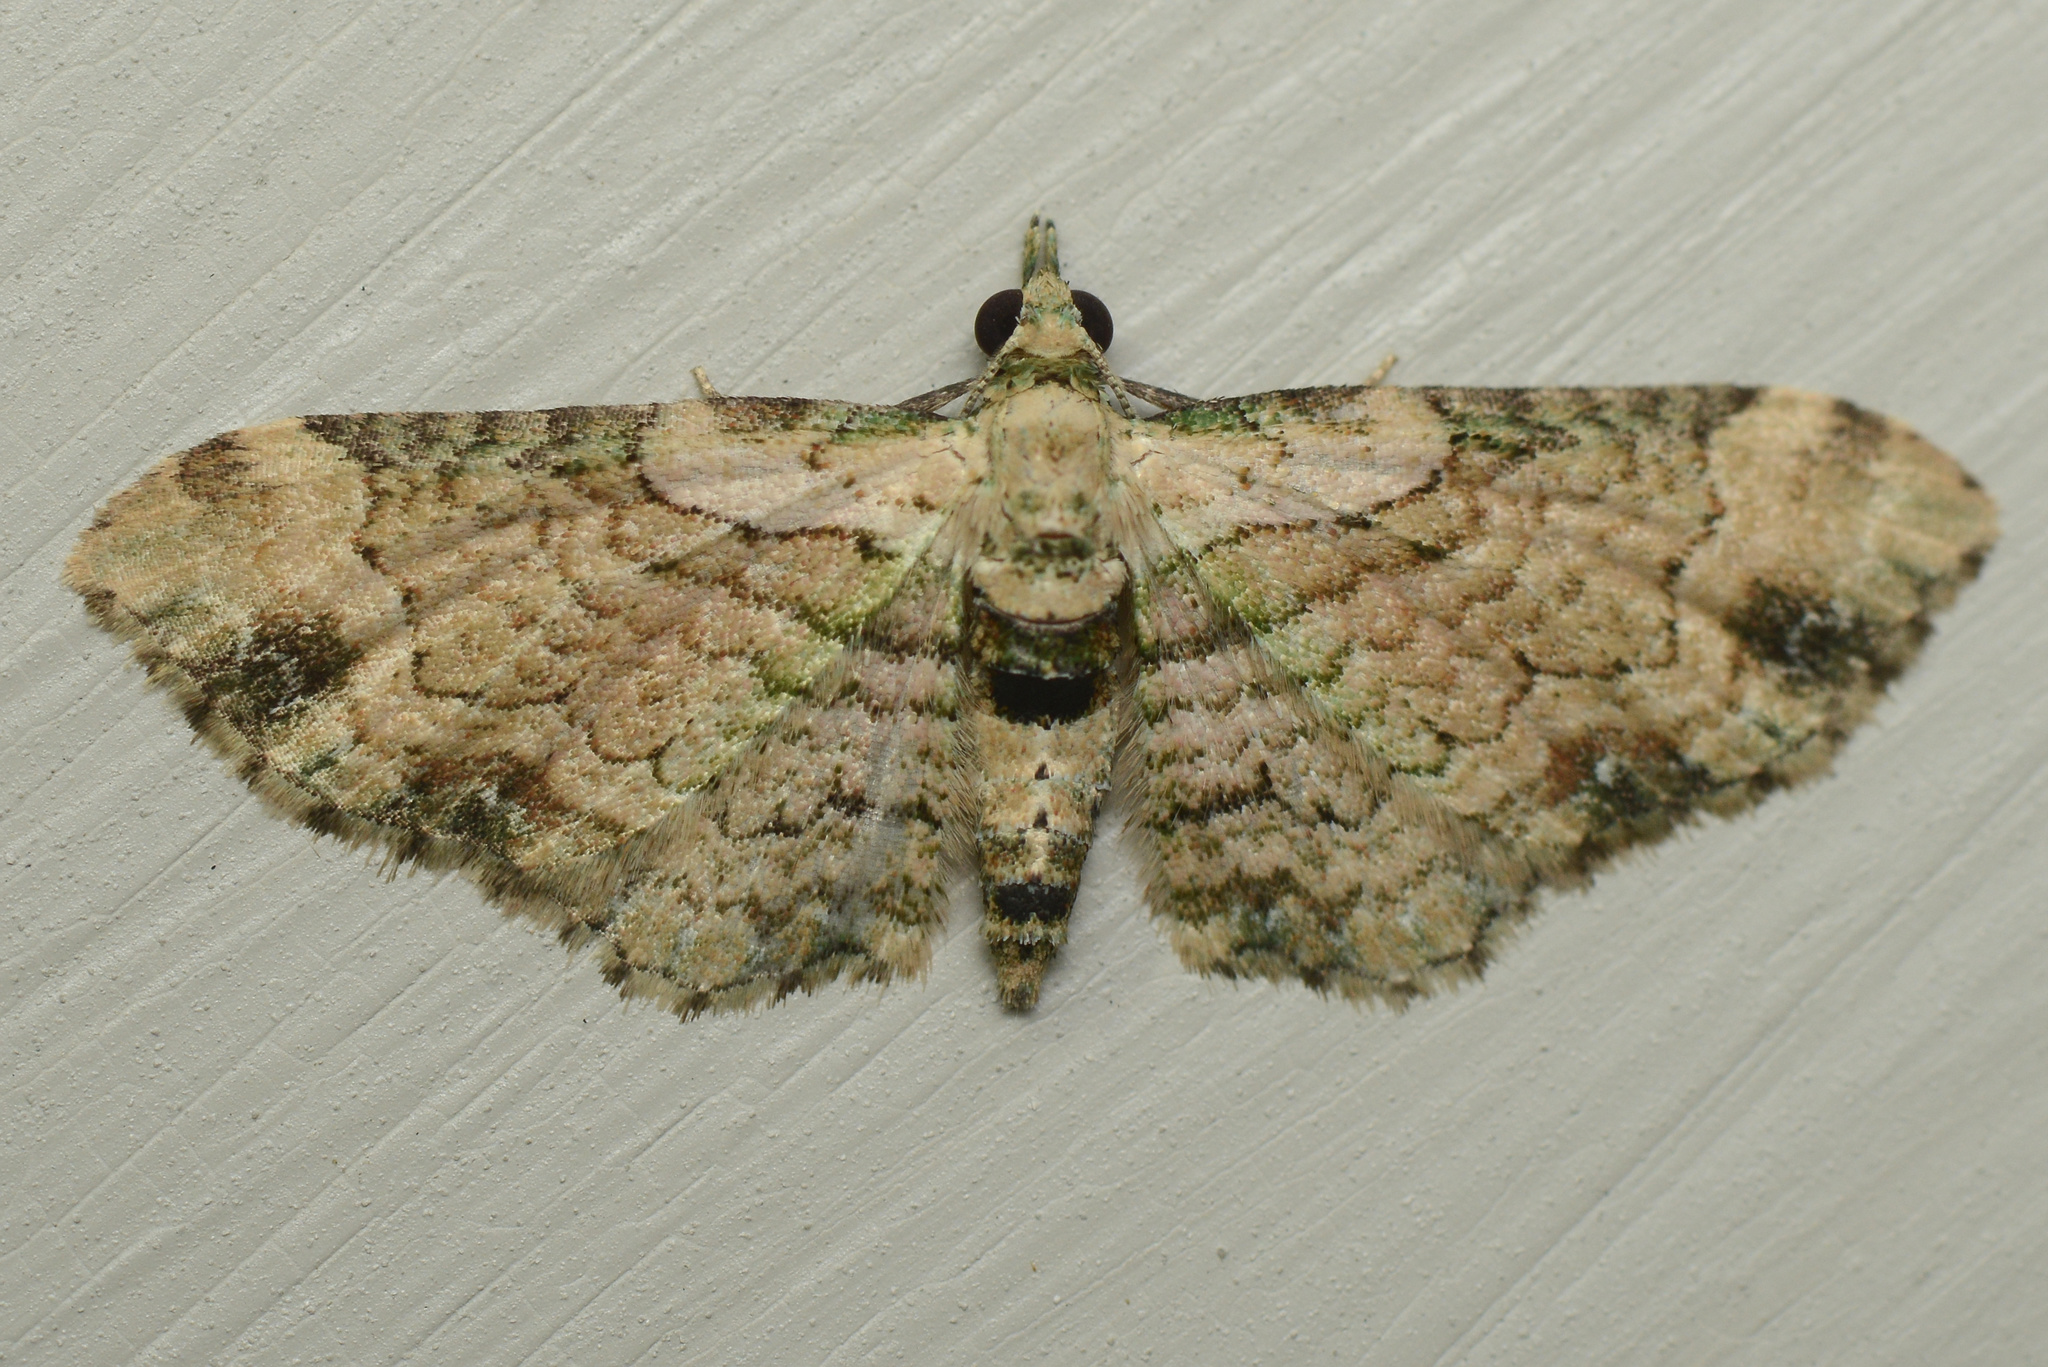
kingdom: Animalia
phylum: Arthropoda
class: Insecta
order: Lepidoptera
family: Geometridae
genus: Chloroclystis
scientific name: Chloroclystis
